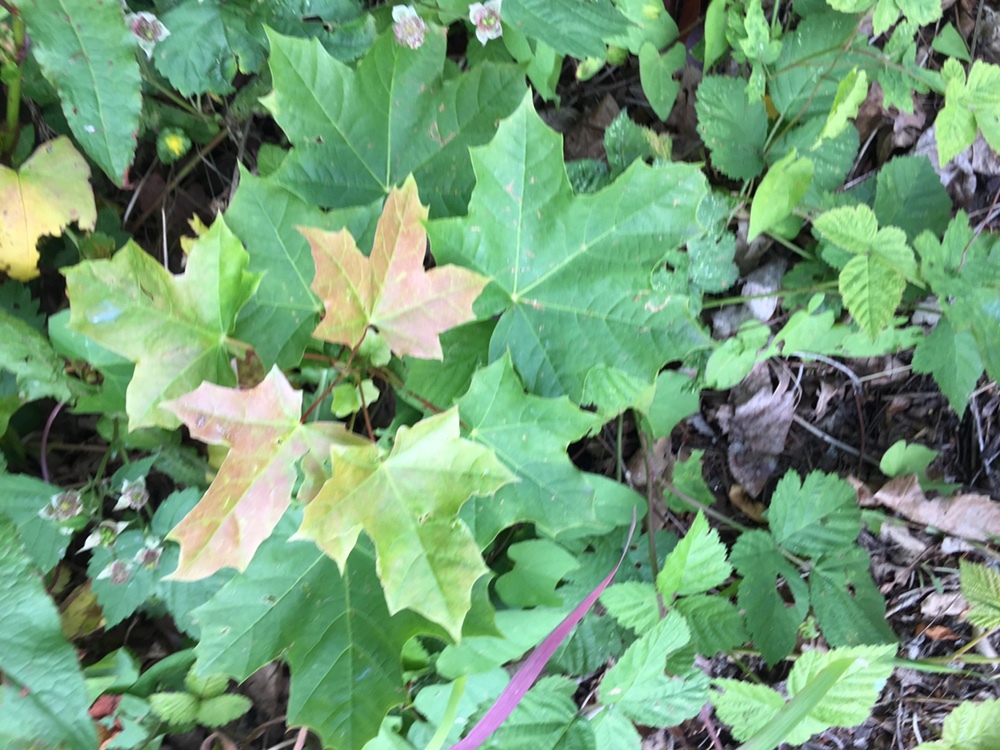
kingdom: Plantae
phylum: Tracheophyta
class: Magnoliopsida
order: Sapindales
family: Sapindaceae
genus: Acer
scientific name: Acer platanoides
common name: Norway maple
